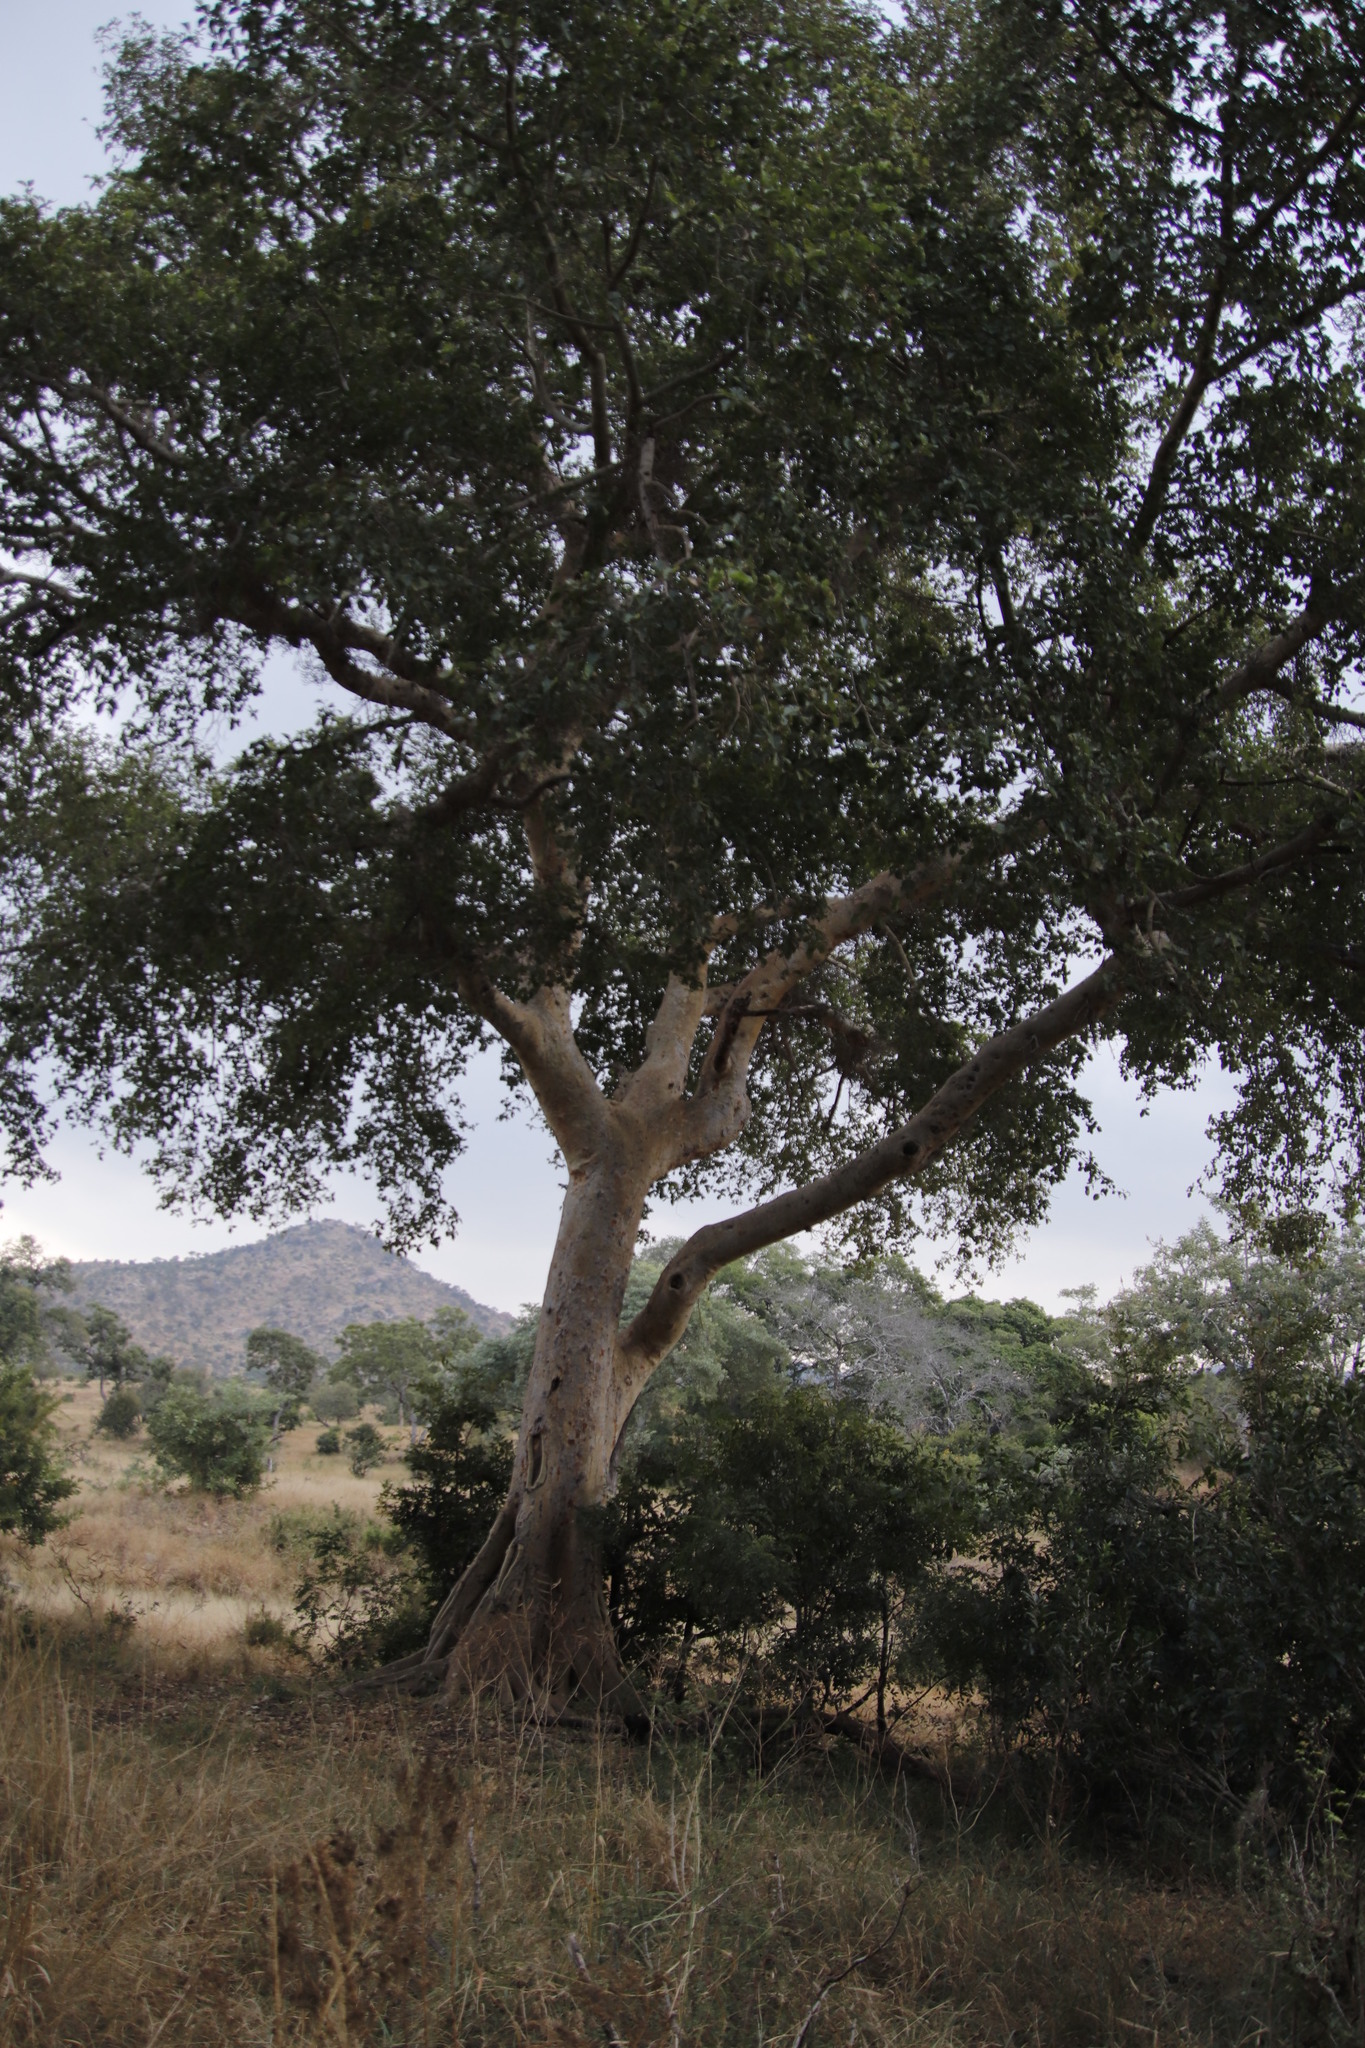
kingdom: Plantae
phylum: Tracheophyta
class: Magnoliopsida
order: Rosales
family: Moraceae
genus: Ficus
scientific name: Ficus sycomorus
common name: Sycomore
